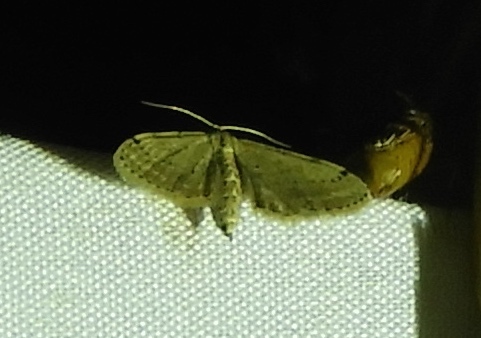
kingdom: Animalia
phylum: Arthropoda
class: Insecta
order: Lepidoptera
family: Geometridae
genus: Idaea
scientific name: Idaea
